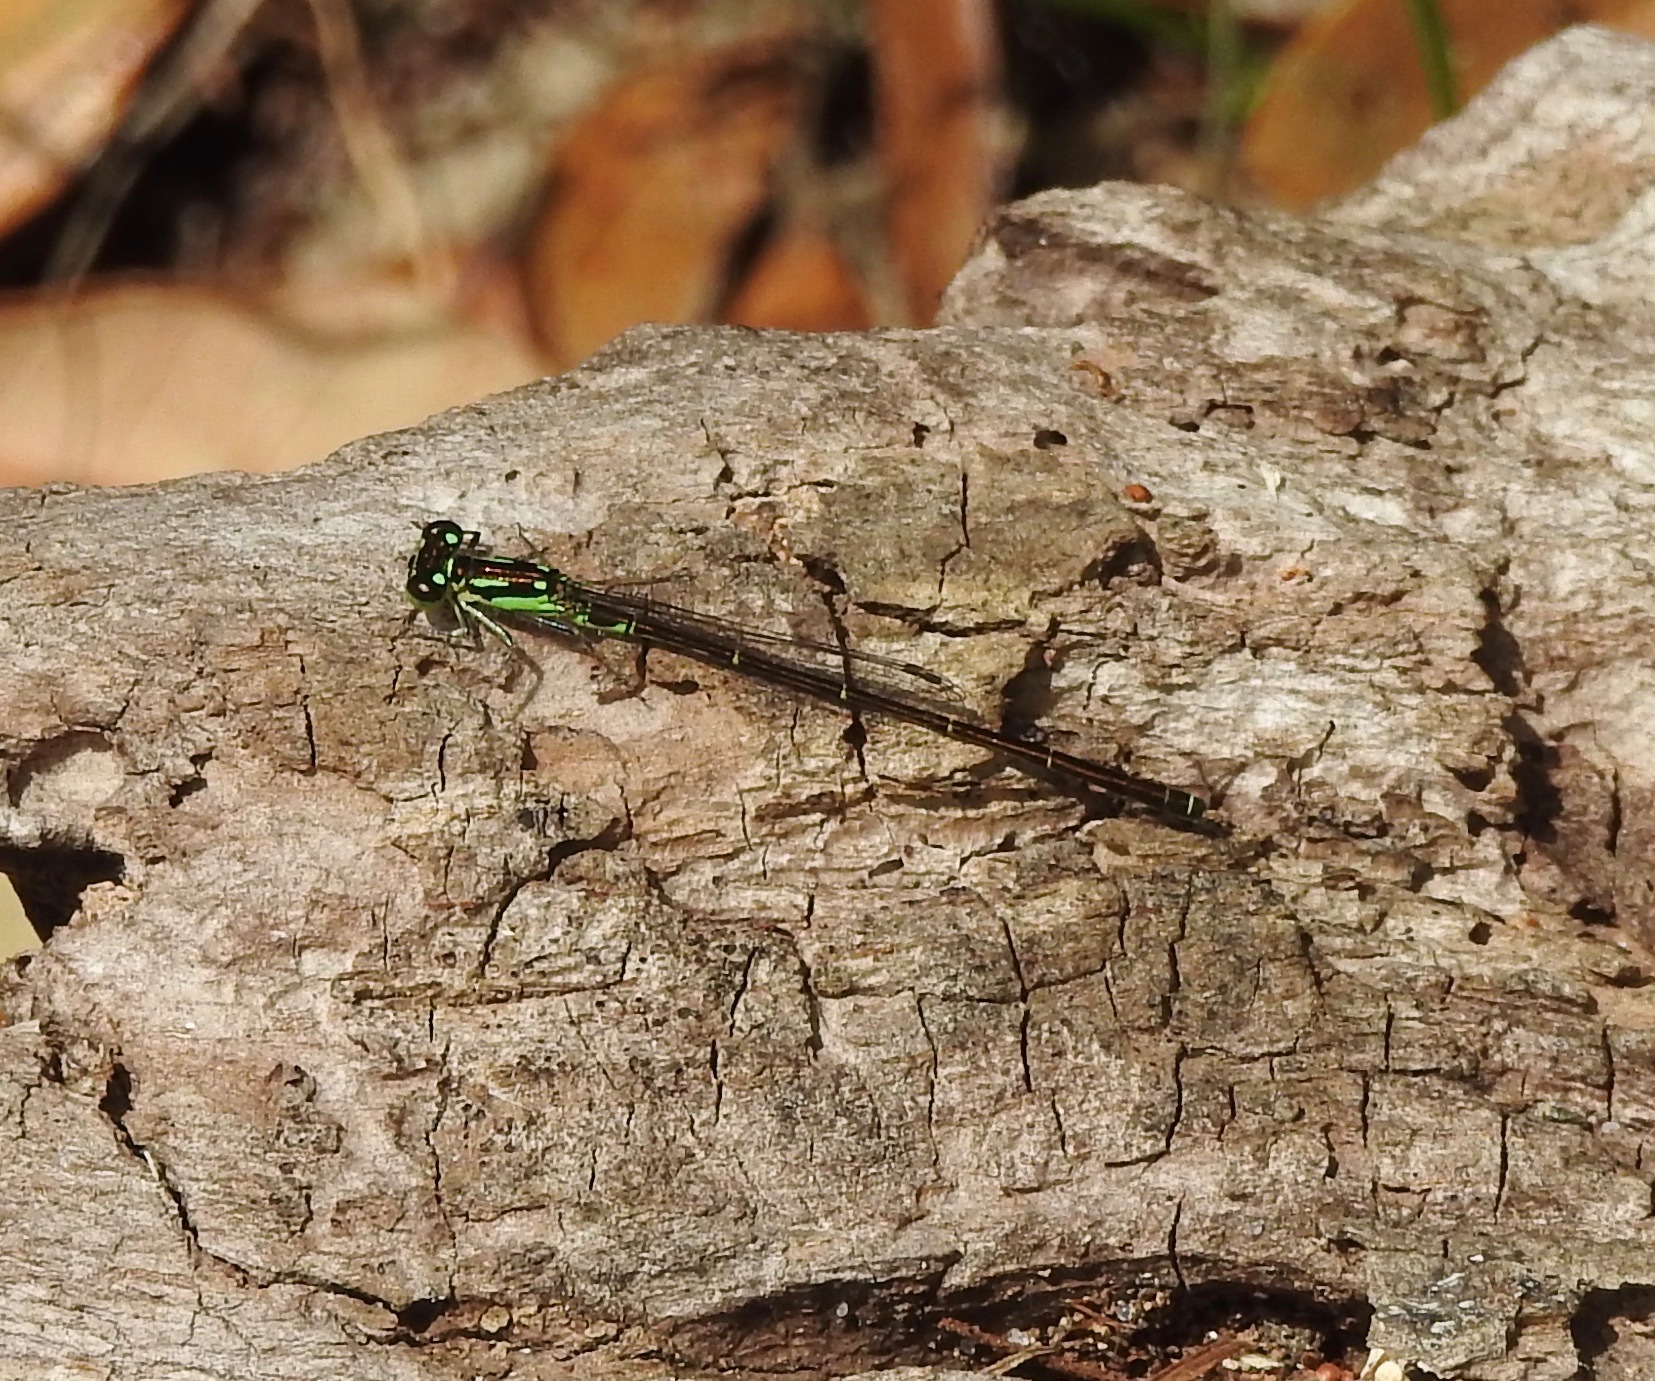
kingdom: Animalia
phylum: Arthropoda
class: Insecta
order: Odonata
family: Coenagrionidae
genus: Ischnura
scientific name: Ischnura posita
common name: Fragile forktail
